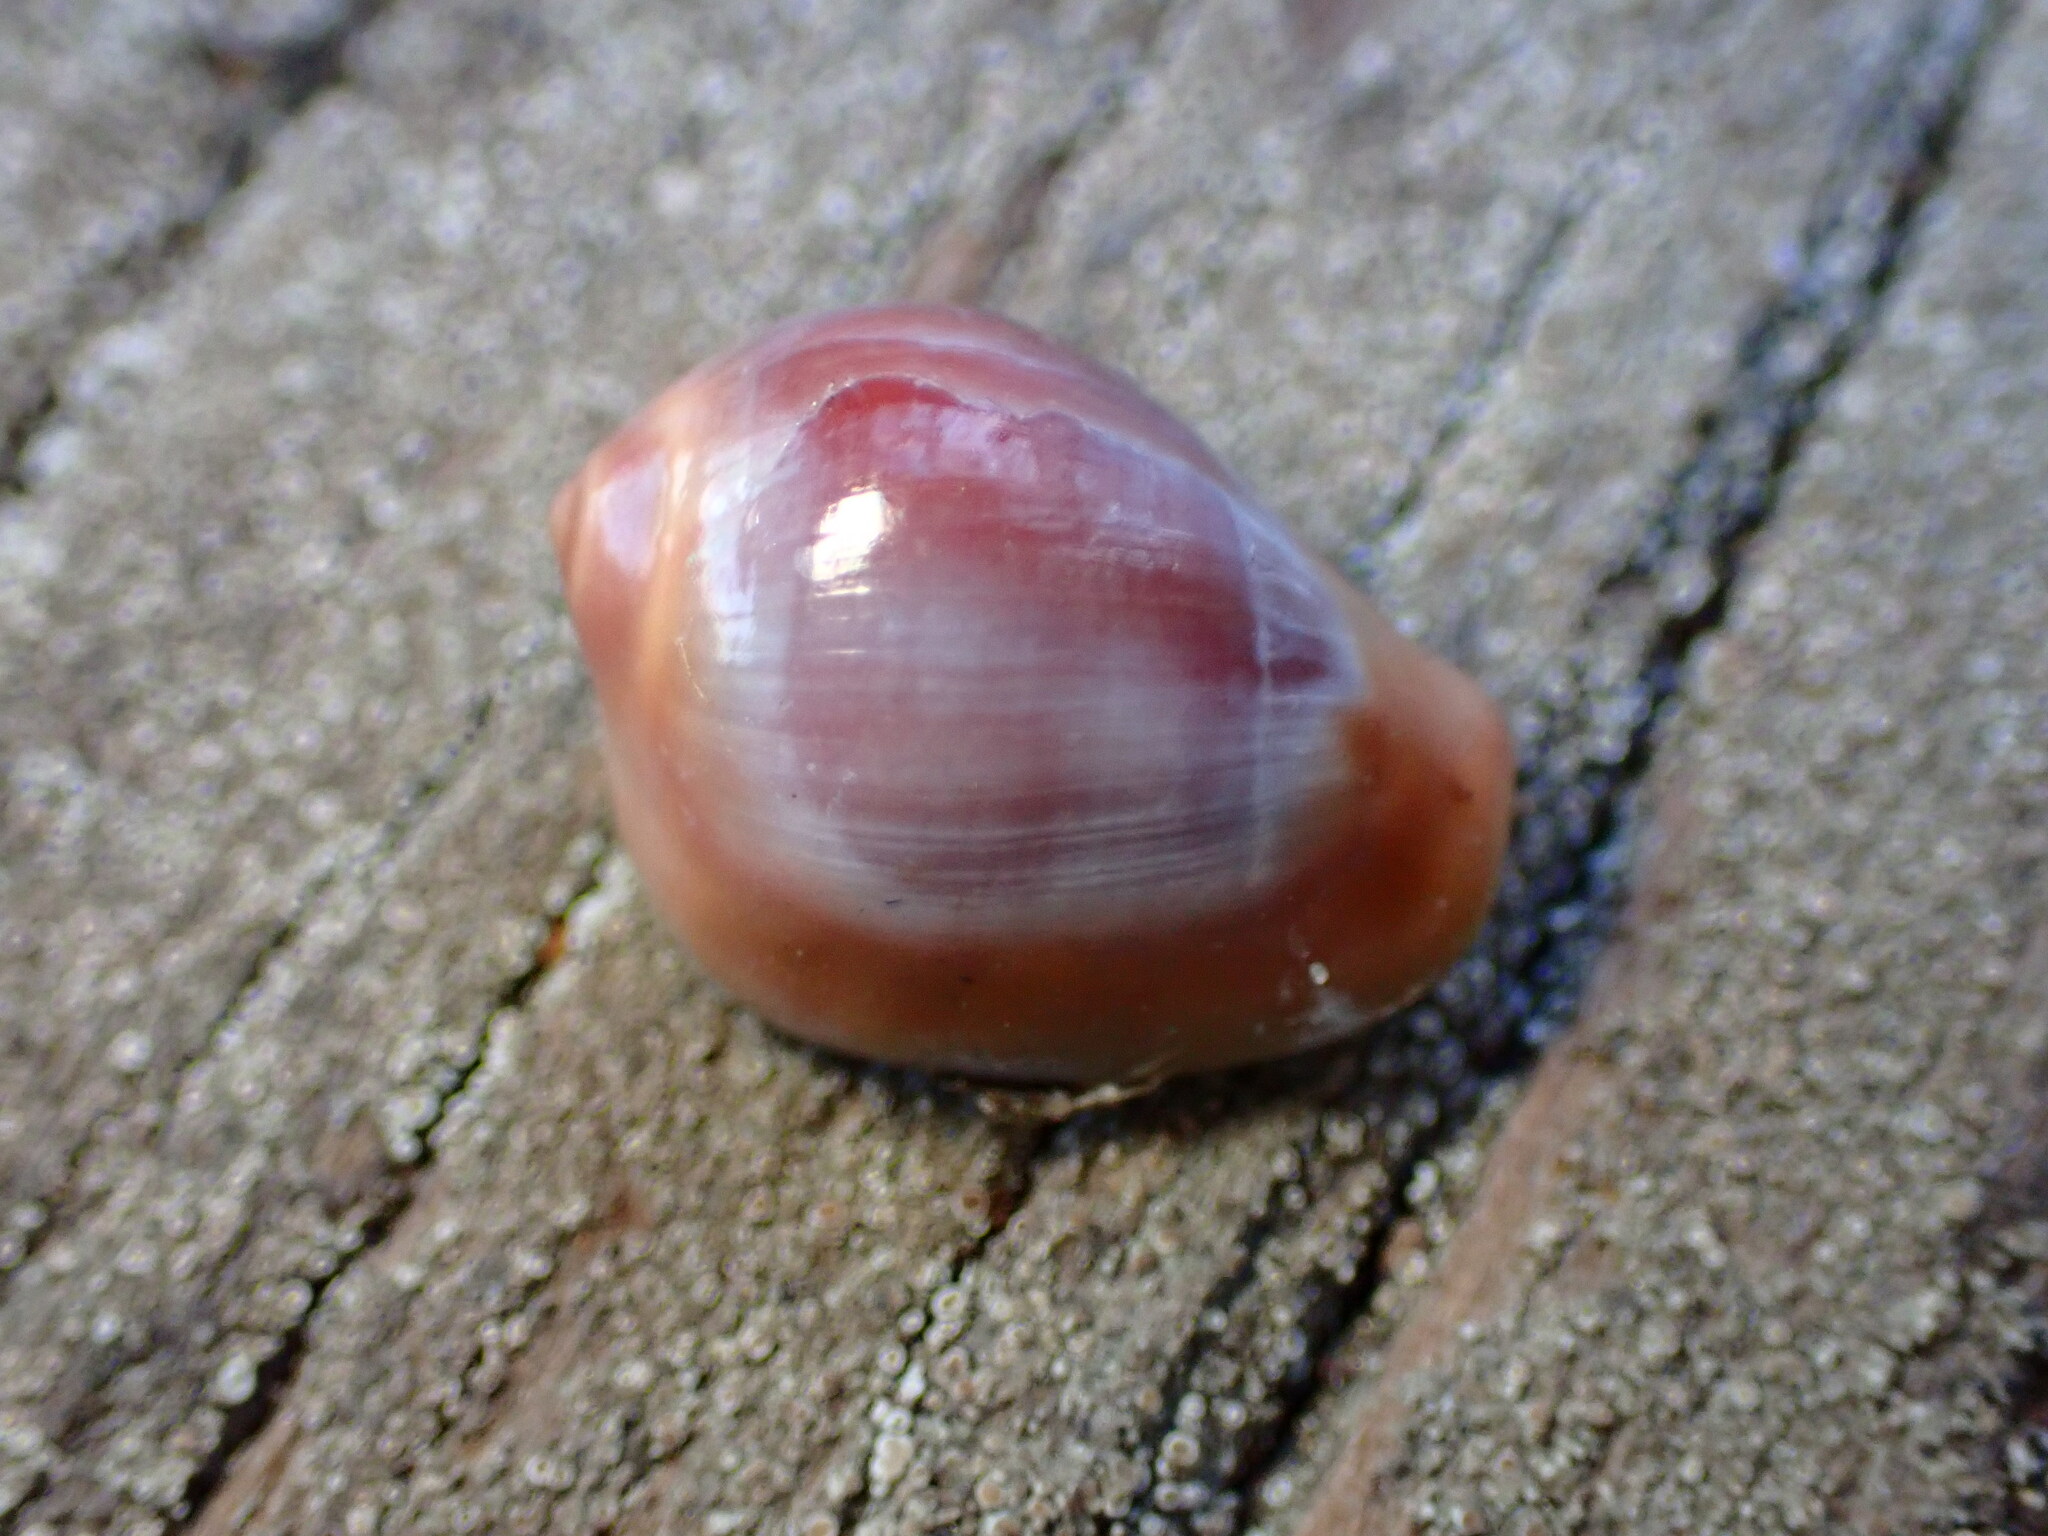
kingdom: Animalia
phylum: Mollusca
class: Gastropoda
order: Littorinimorpha
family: Eratoidae
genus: Hespererato
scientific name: Hespererato vitellina
